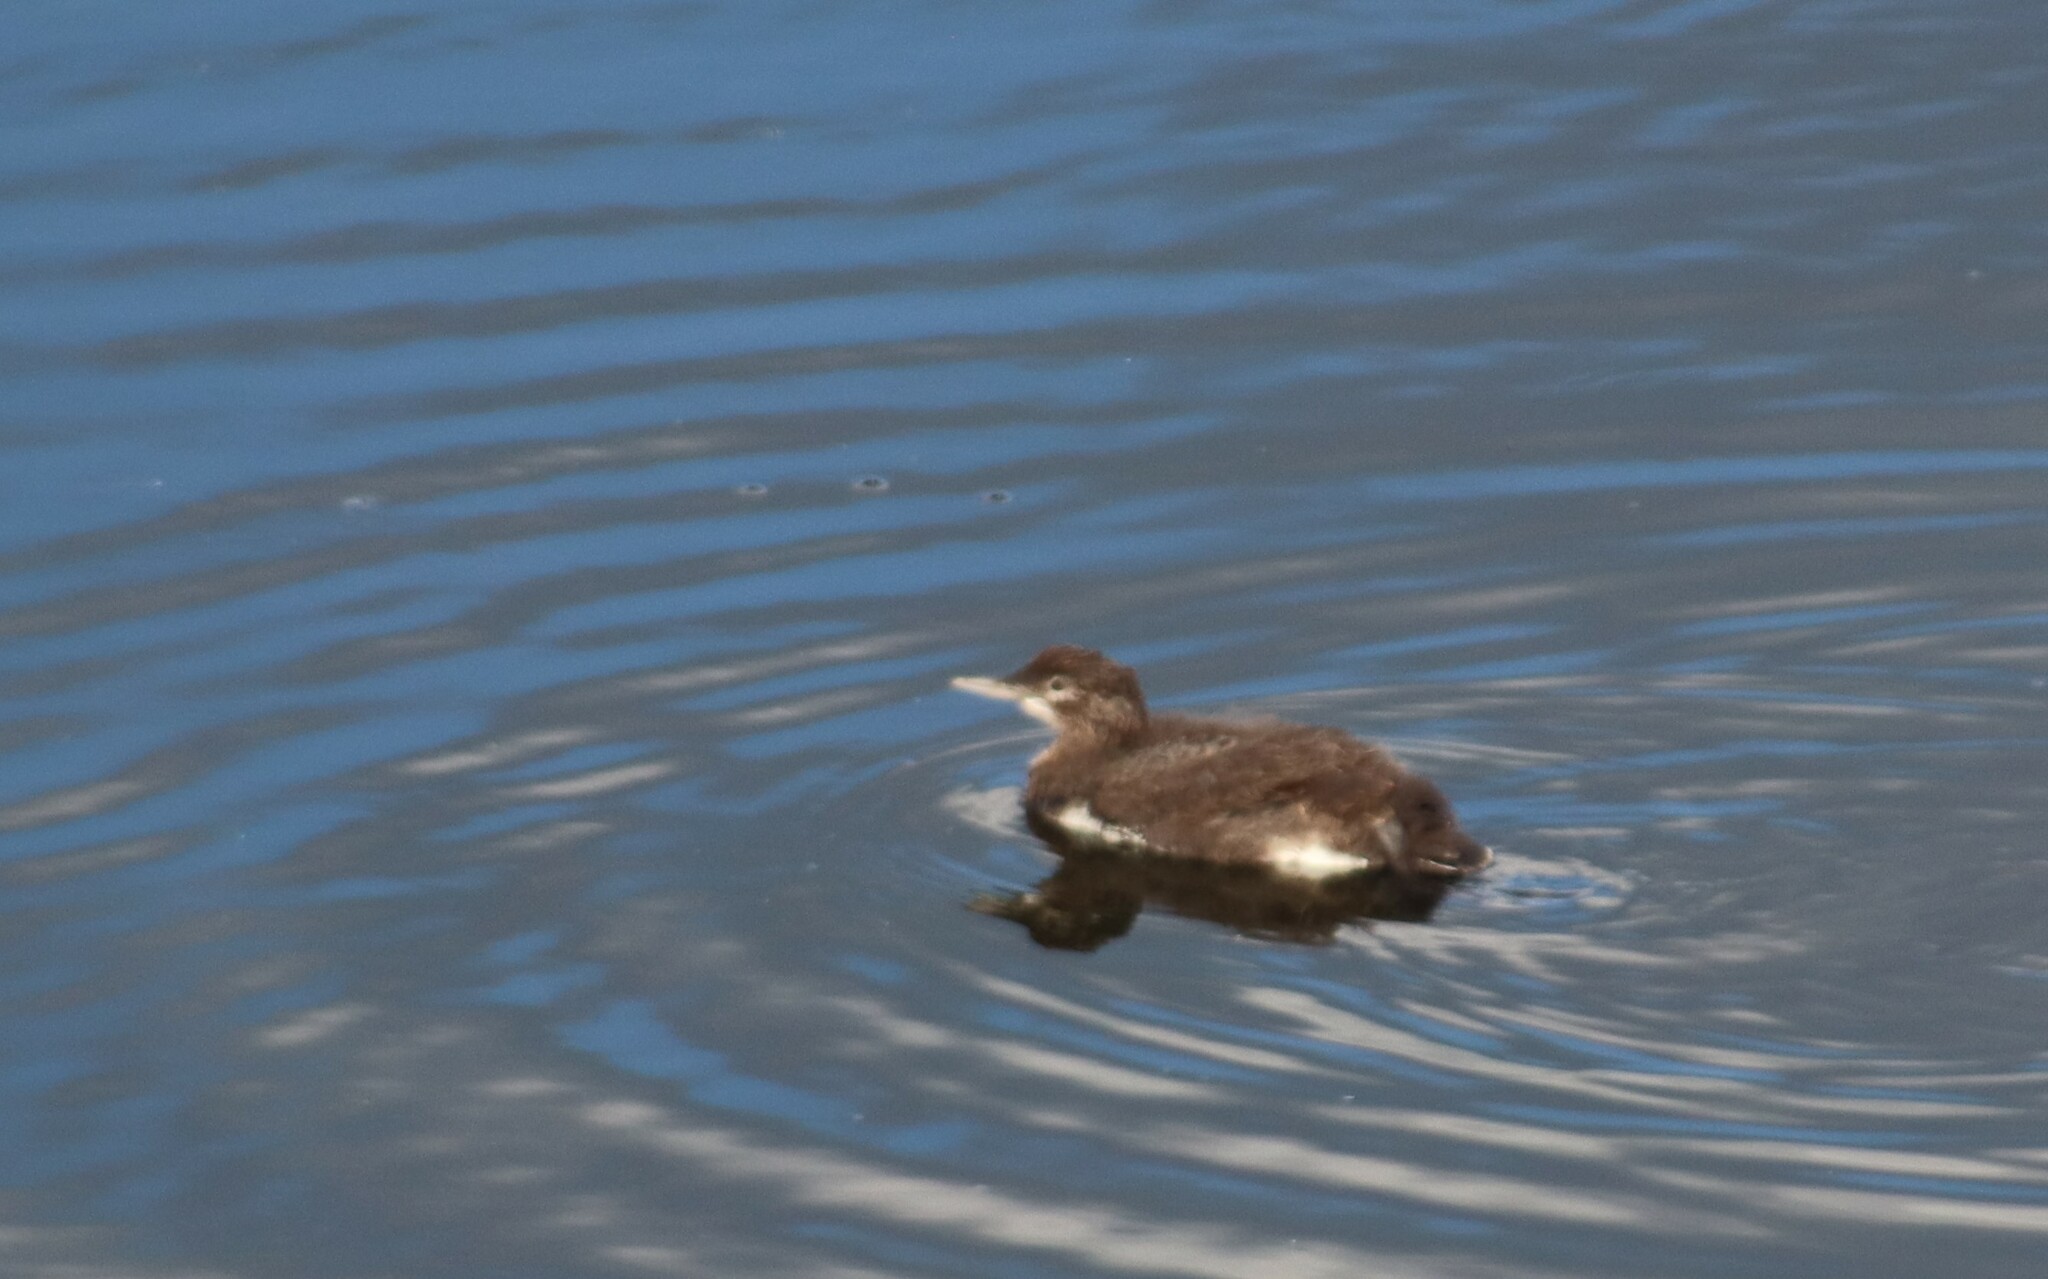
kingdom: Animalia
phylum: Chordata
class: Aves
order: Gaviiformes
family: Gaviidae
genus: Gavia
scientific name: Gavia immer
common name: Common loon
